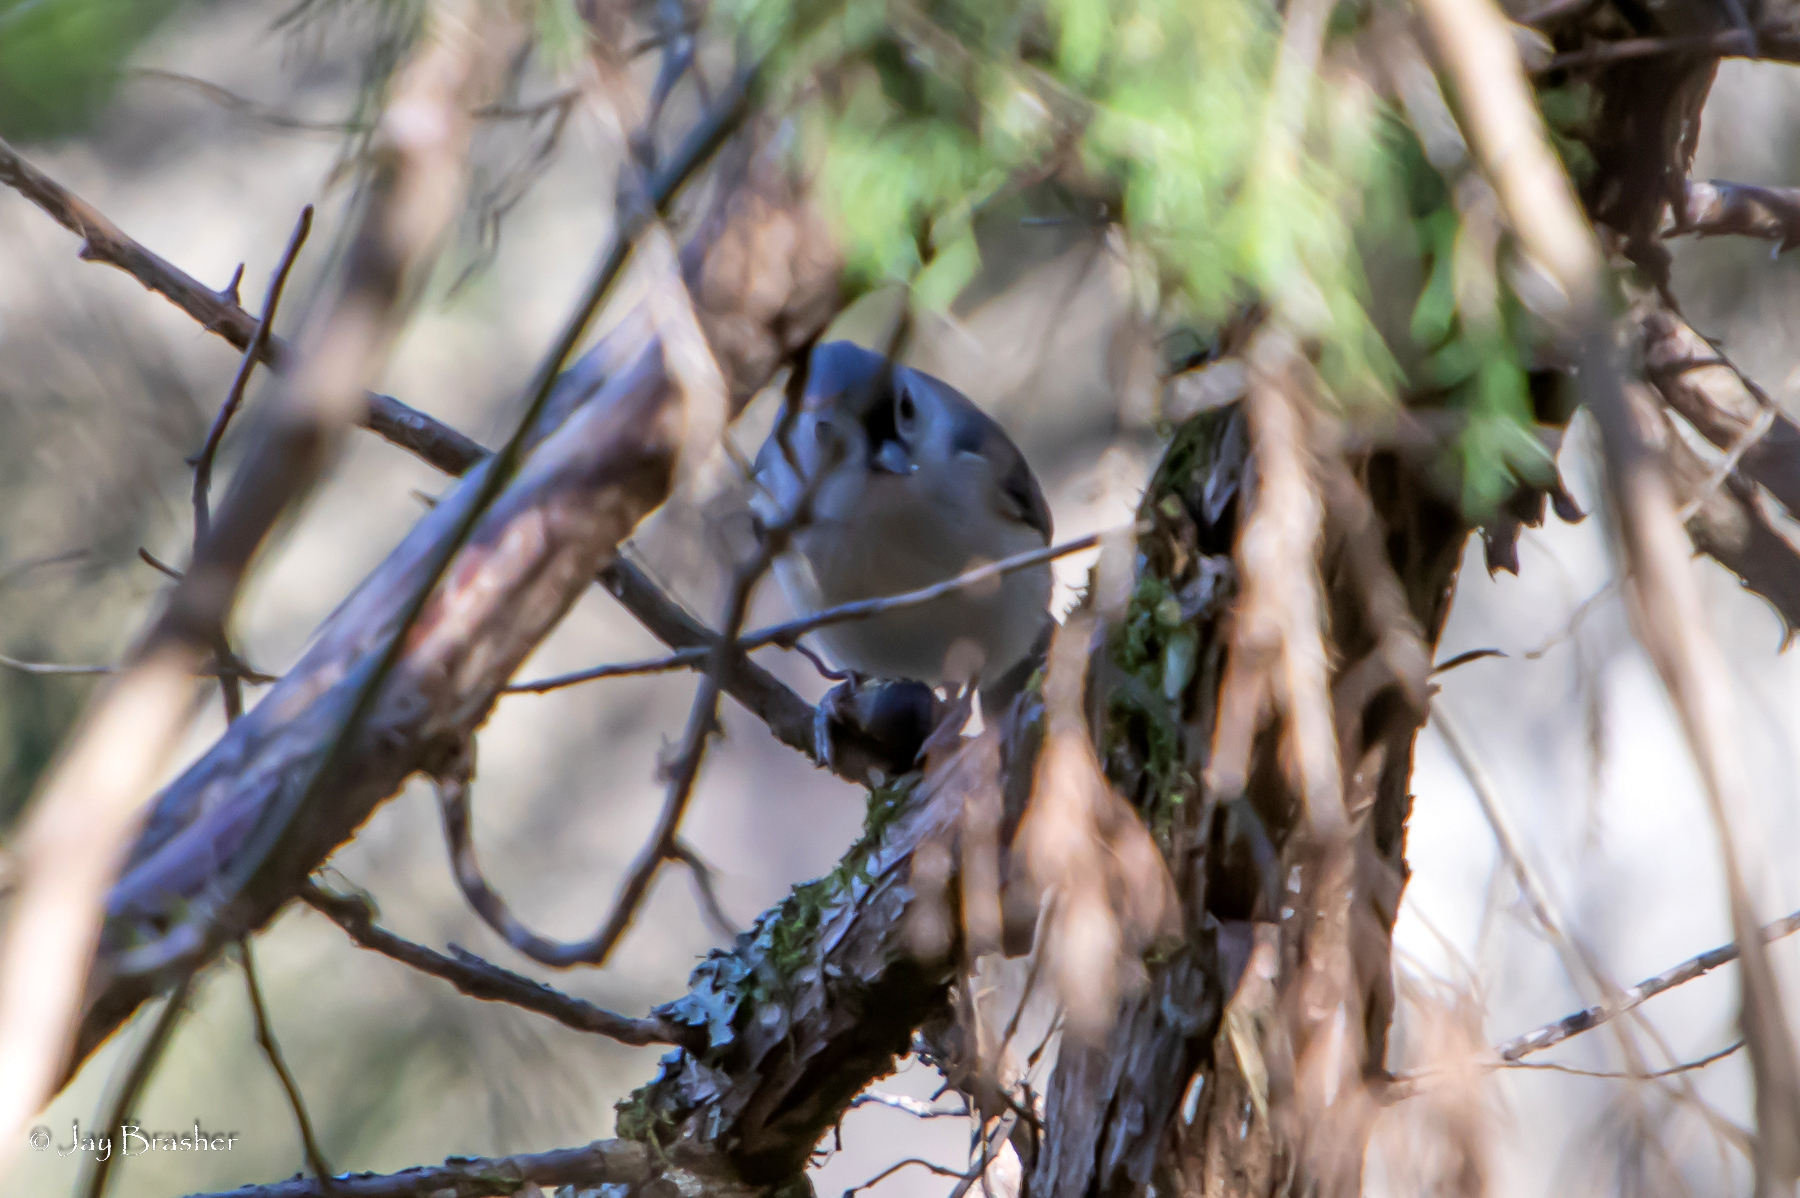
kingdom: Animalia
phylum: Chordata
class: Aves
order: Passeriformes
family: Paridae
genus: Baeolophus
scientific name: Baeolophus bicolor
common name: Tufted titmouse
